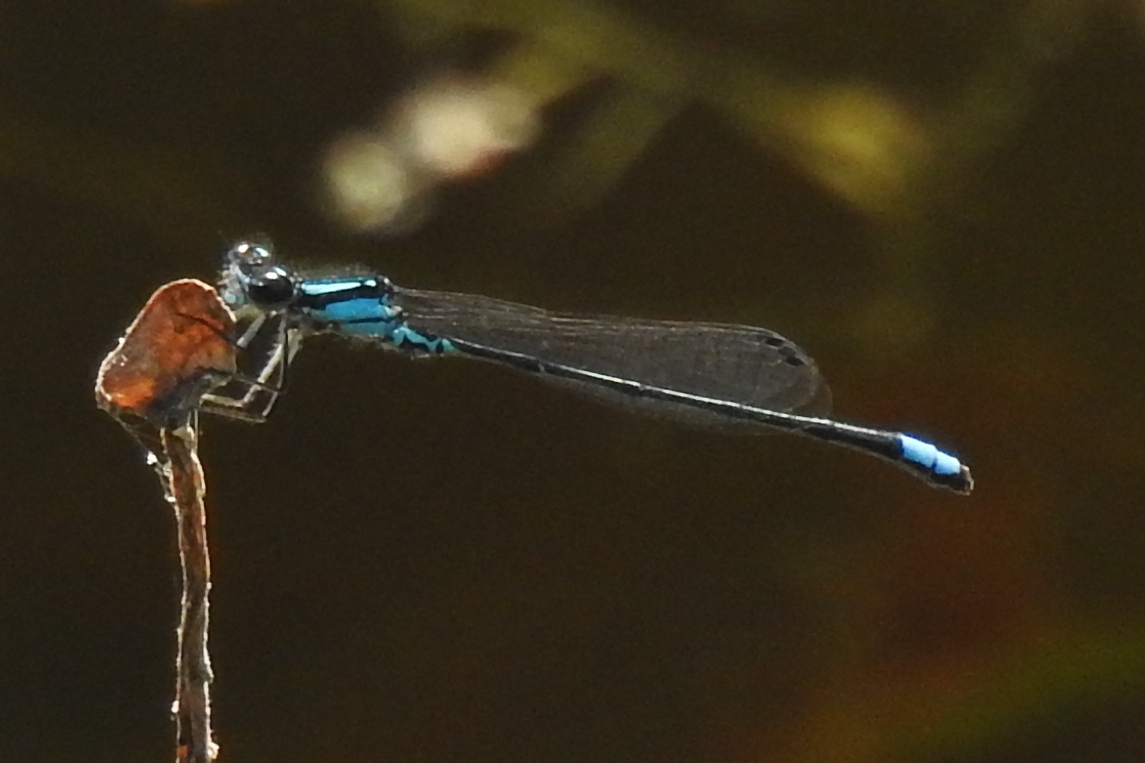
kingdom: Animalia
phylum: Arthropoda
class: Insecta
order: Odonata
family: Coenagrionidae
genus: Enallagma
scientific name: Enallagma geminatum
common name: Skimming bluet
